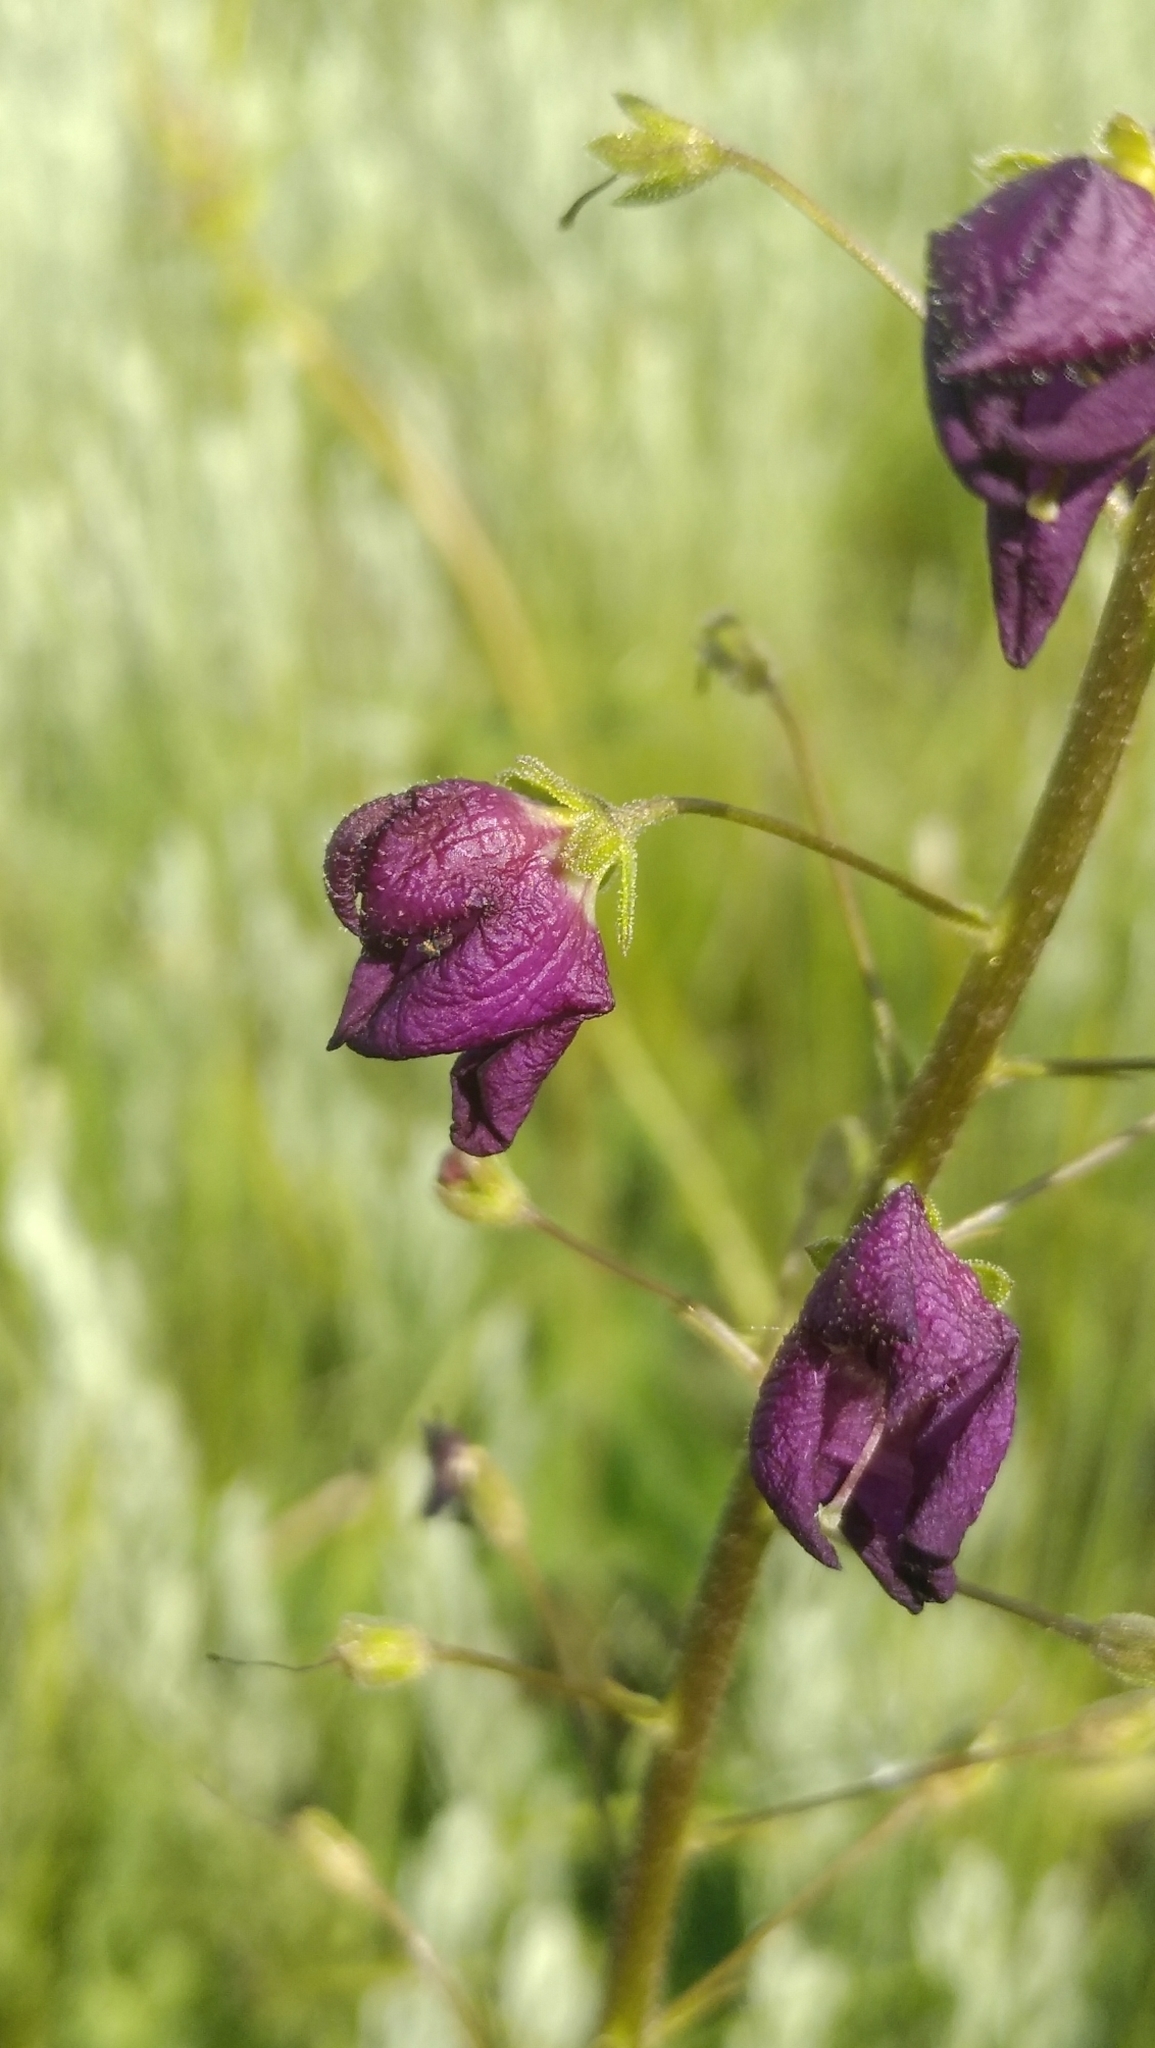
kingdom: Plantae
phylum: Tracheophyta
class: Magnoliopsida
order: Lamiales
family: Scrophulariaceae
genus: Verbascum
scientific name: Verbascum phoeniceum
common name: Purple mullein
